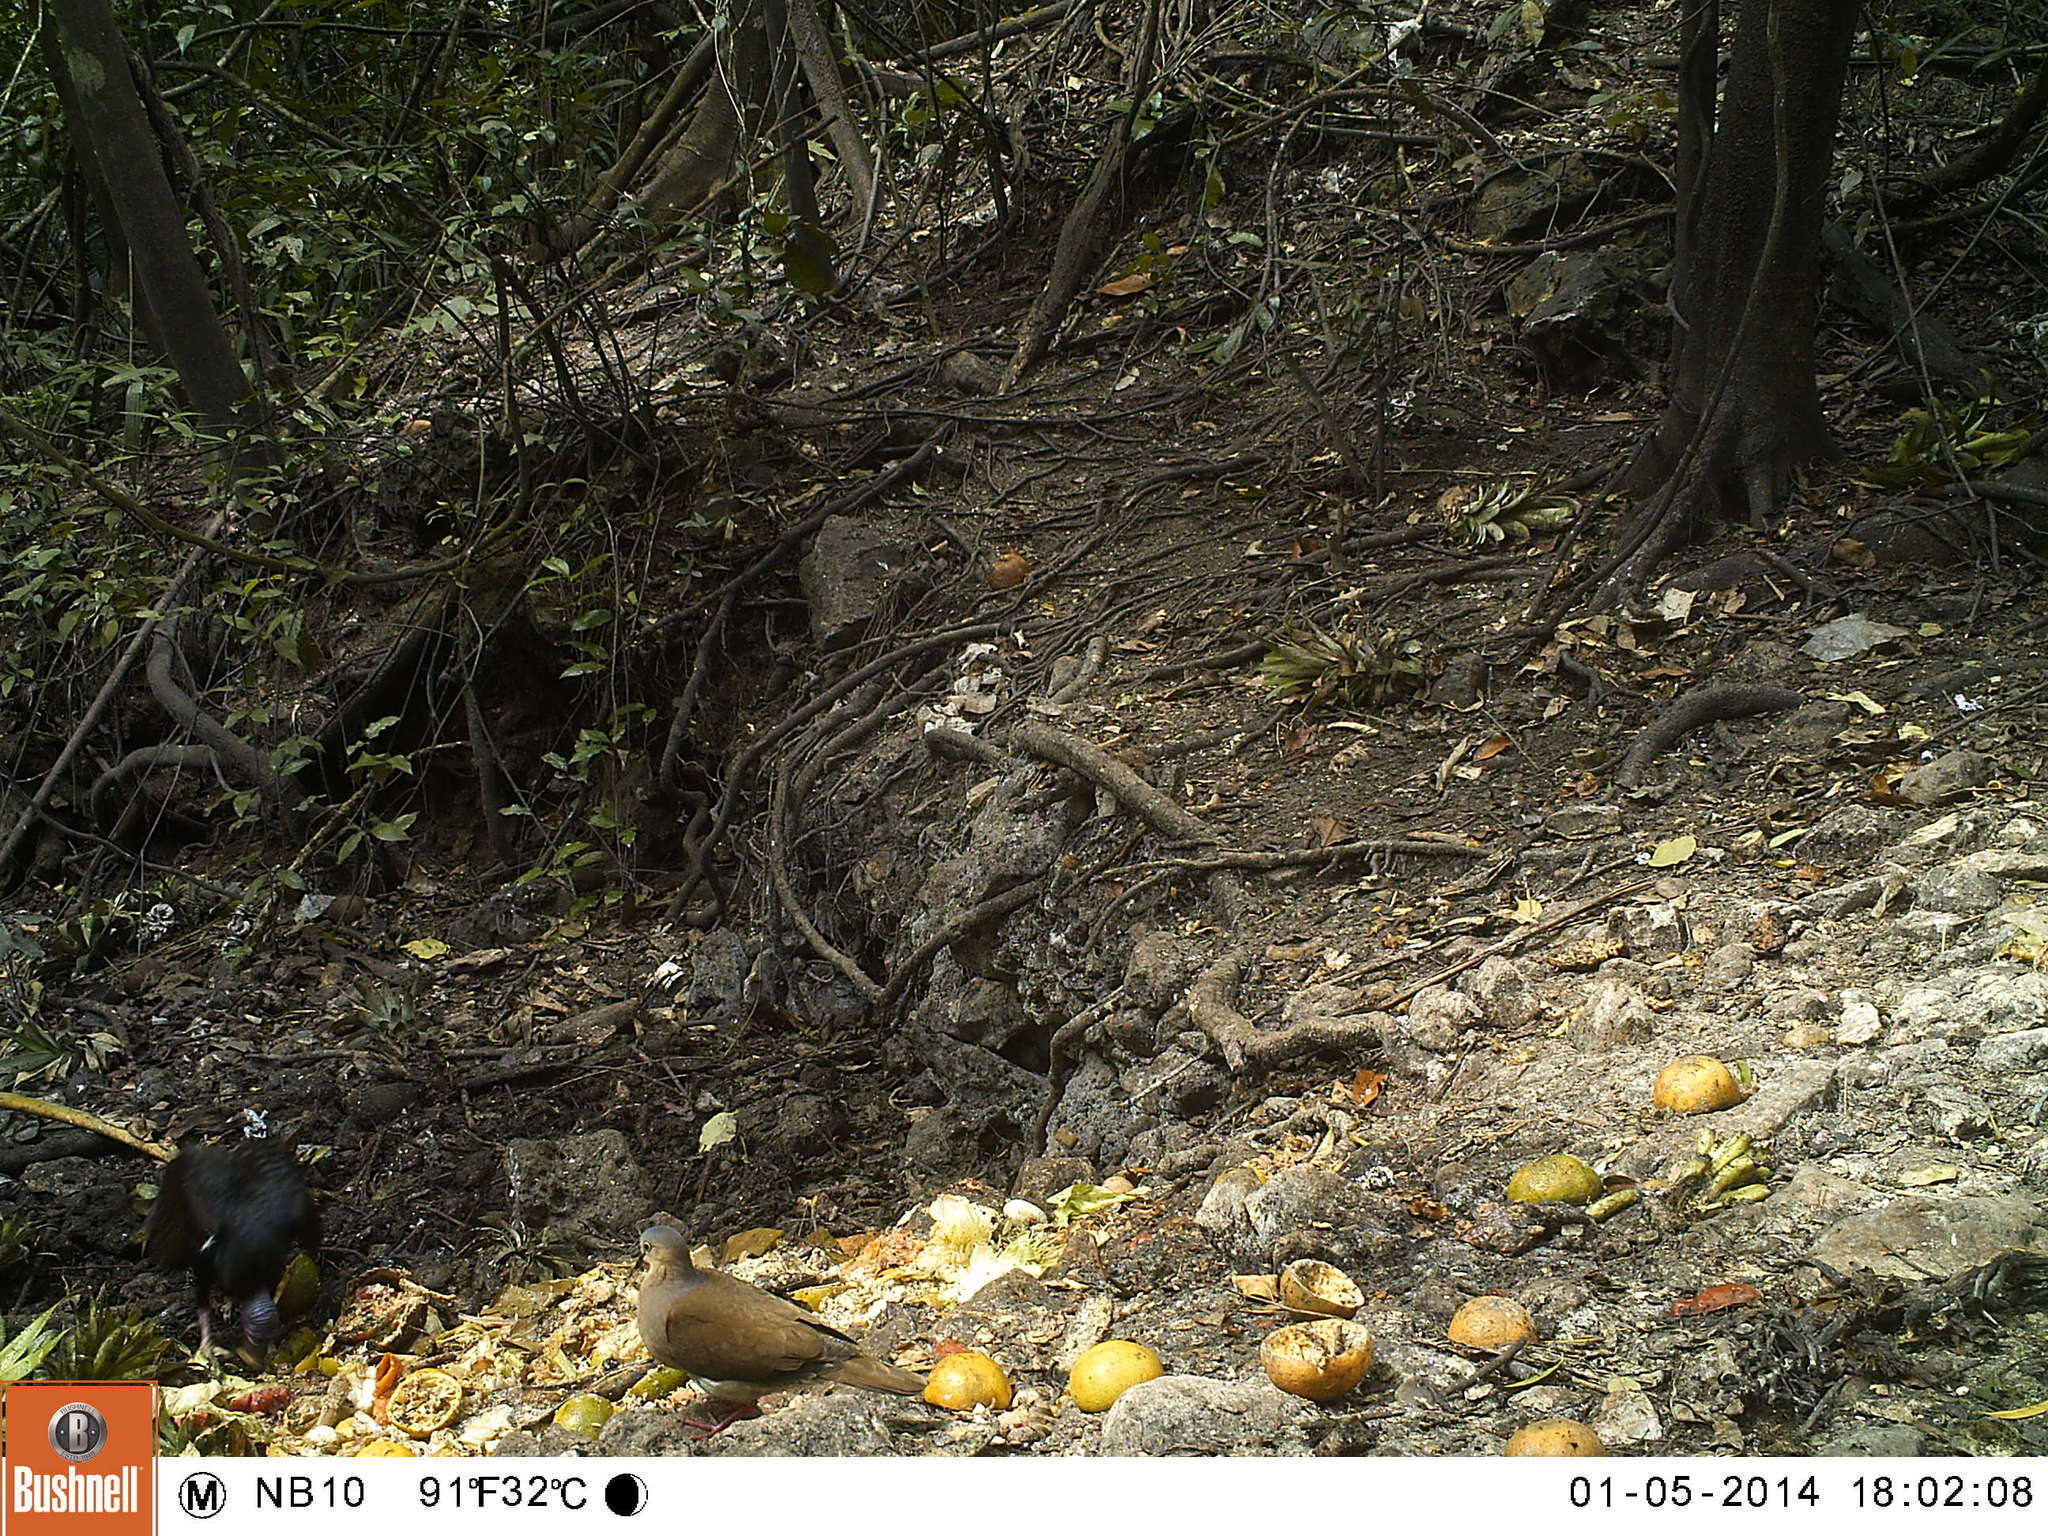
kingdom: Animalia
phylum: Chordata
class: Aves
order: Columbiformes
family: Columbidae
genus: Leptotila
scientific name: Leptotila plumbeiceps
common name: Grey-headed dove
